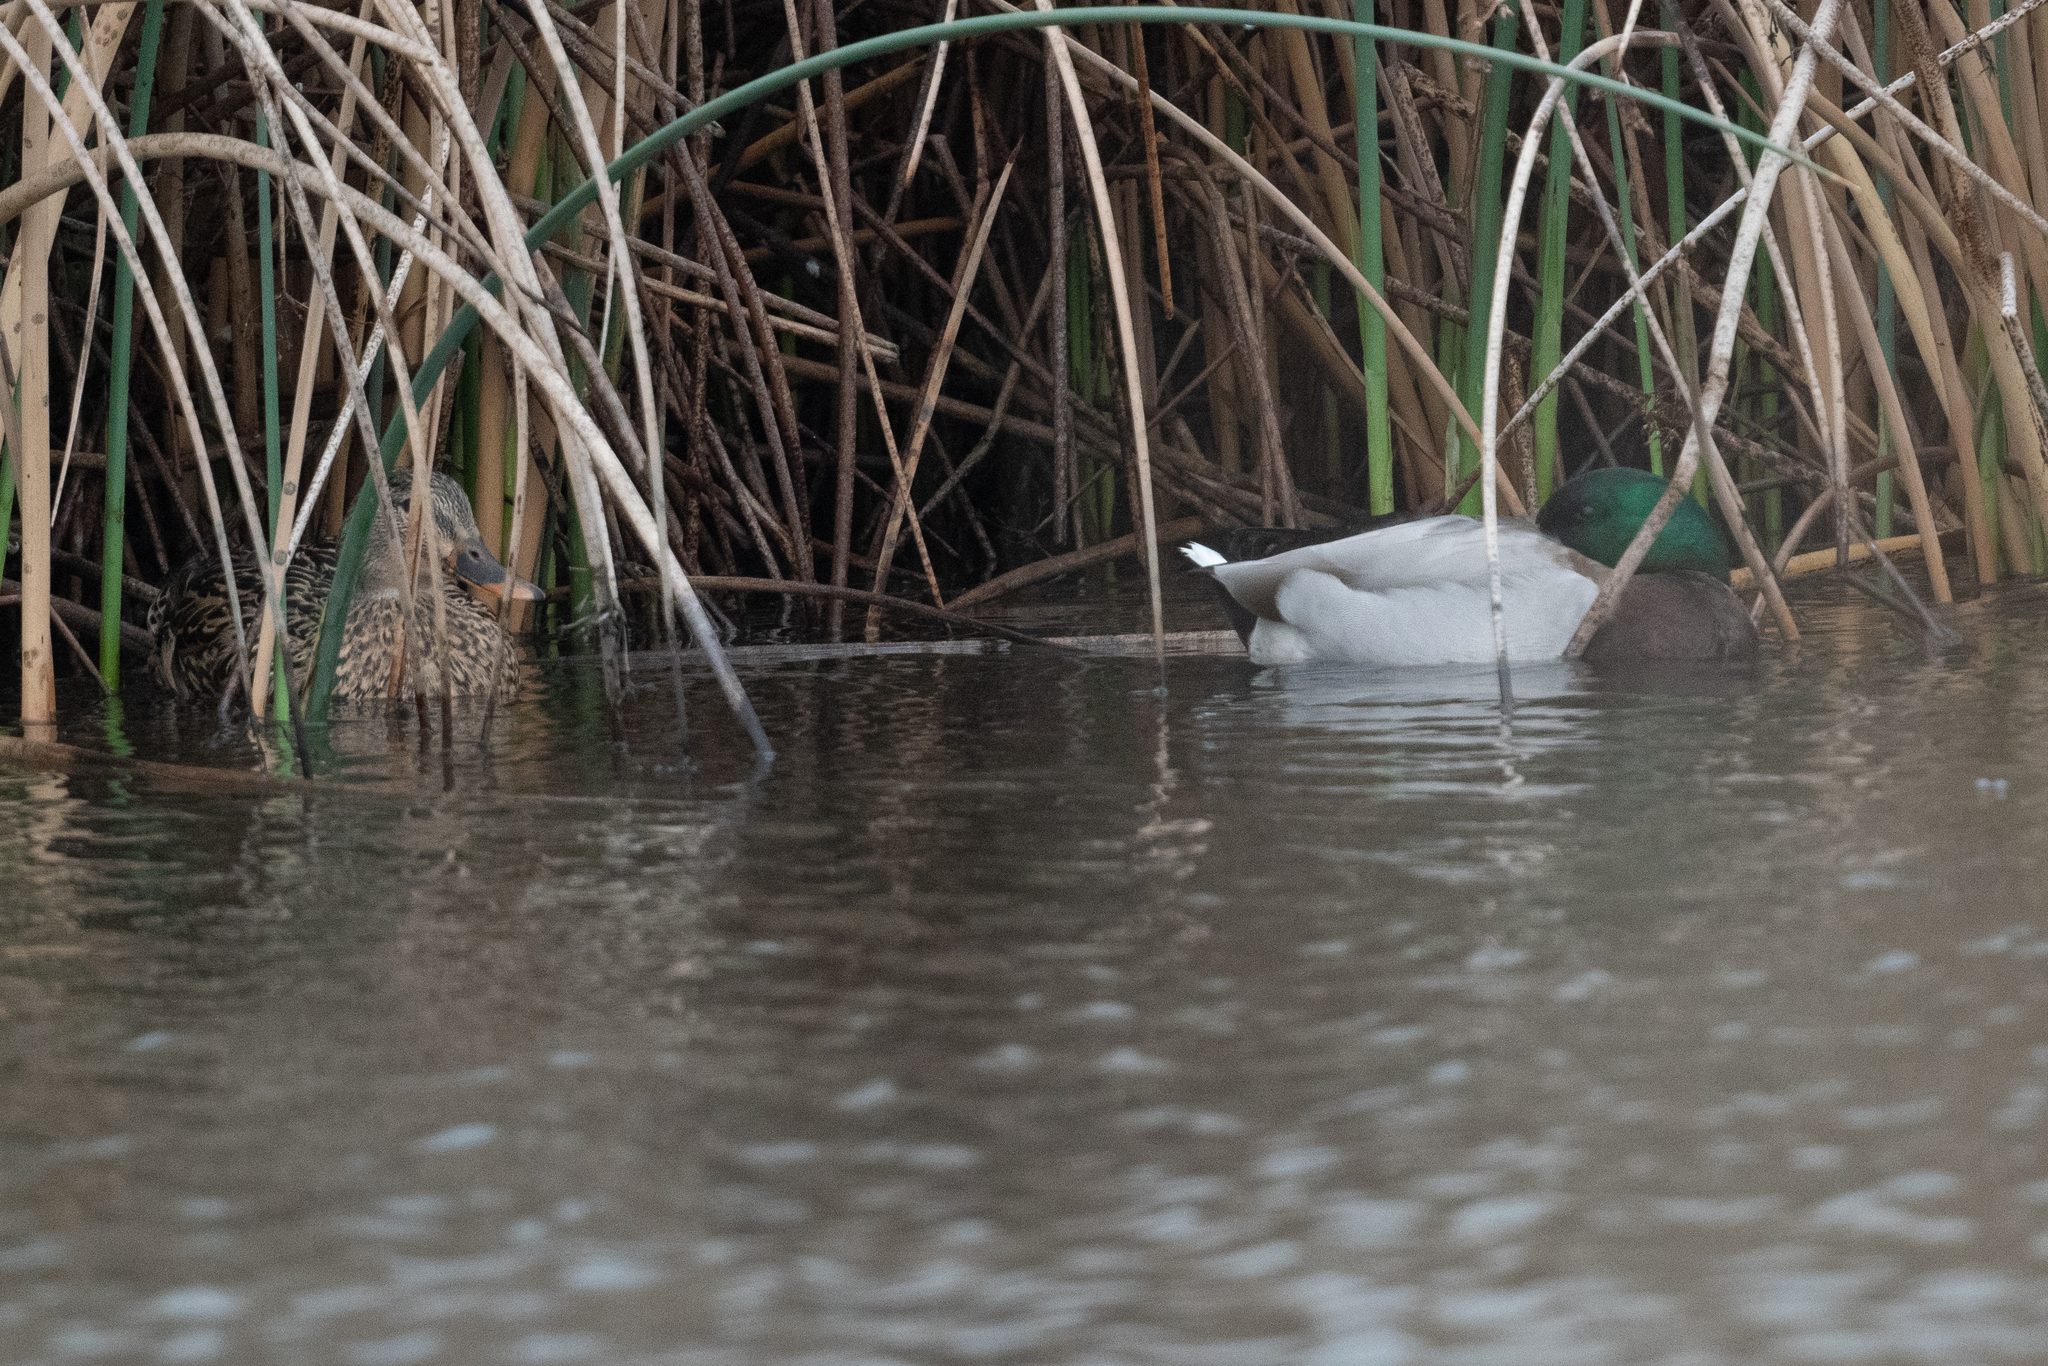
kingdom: Animalia
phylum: Chordata
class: Aves
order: Anseriformes
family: Anatidae
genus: Anas
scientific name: Anas platyrhynchos
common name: Mallard
